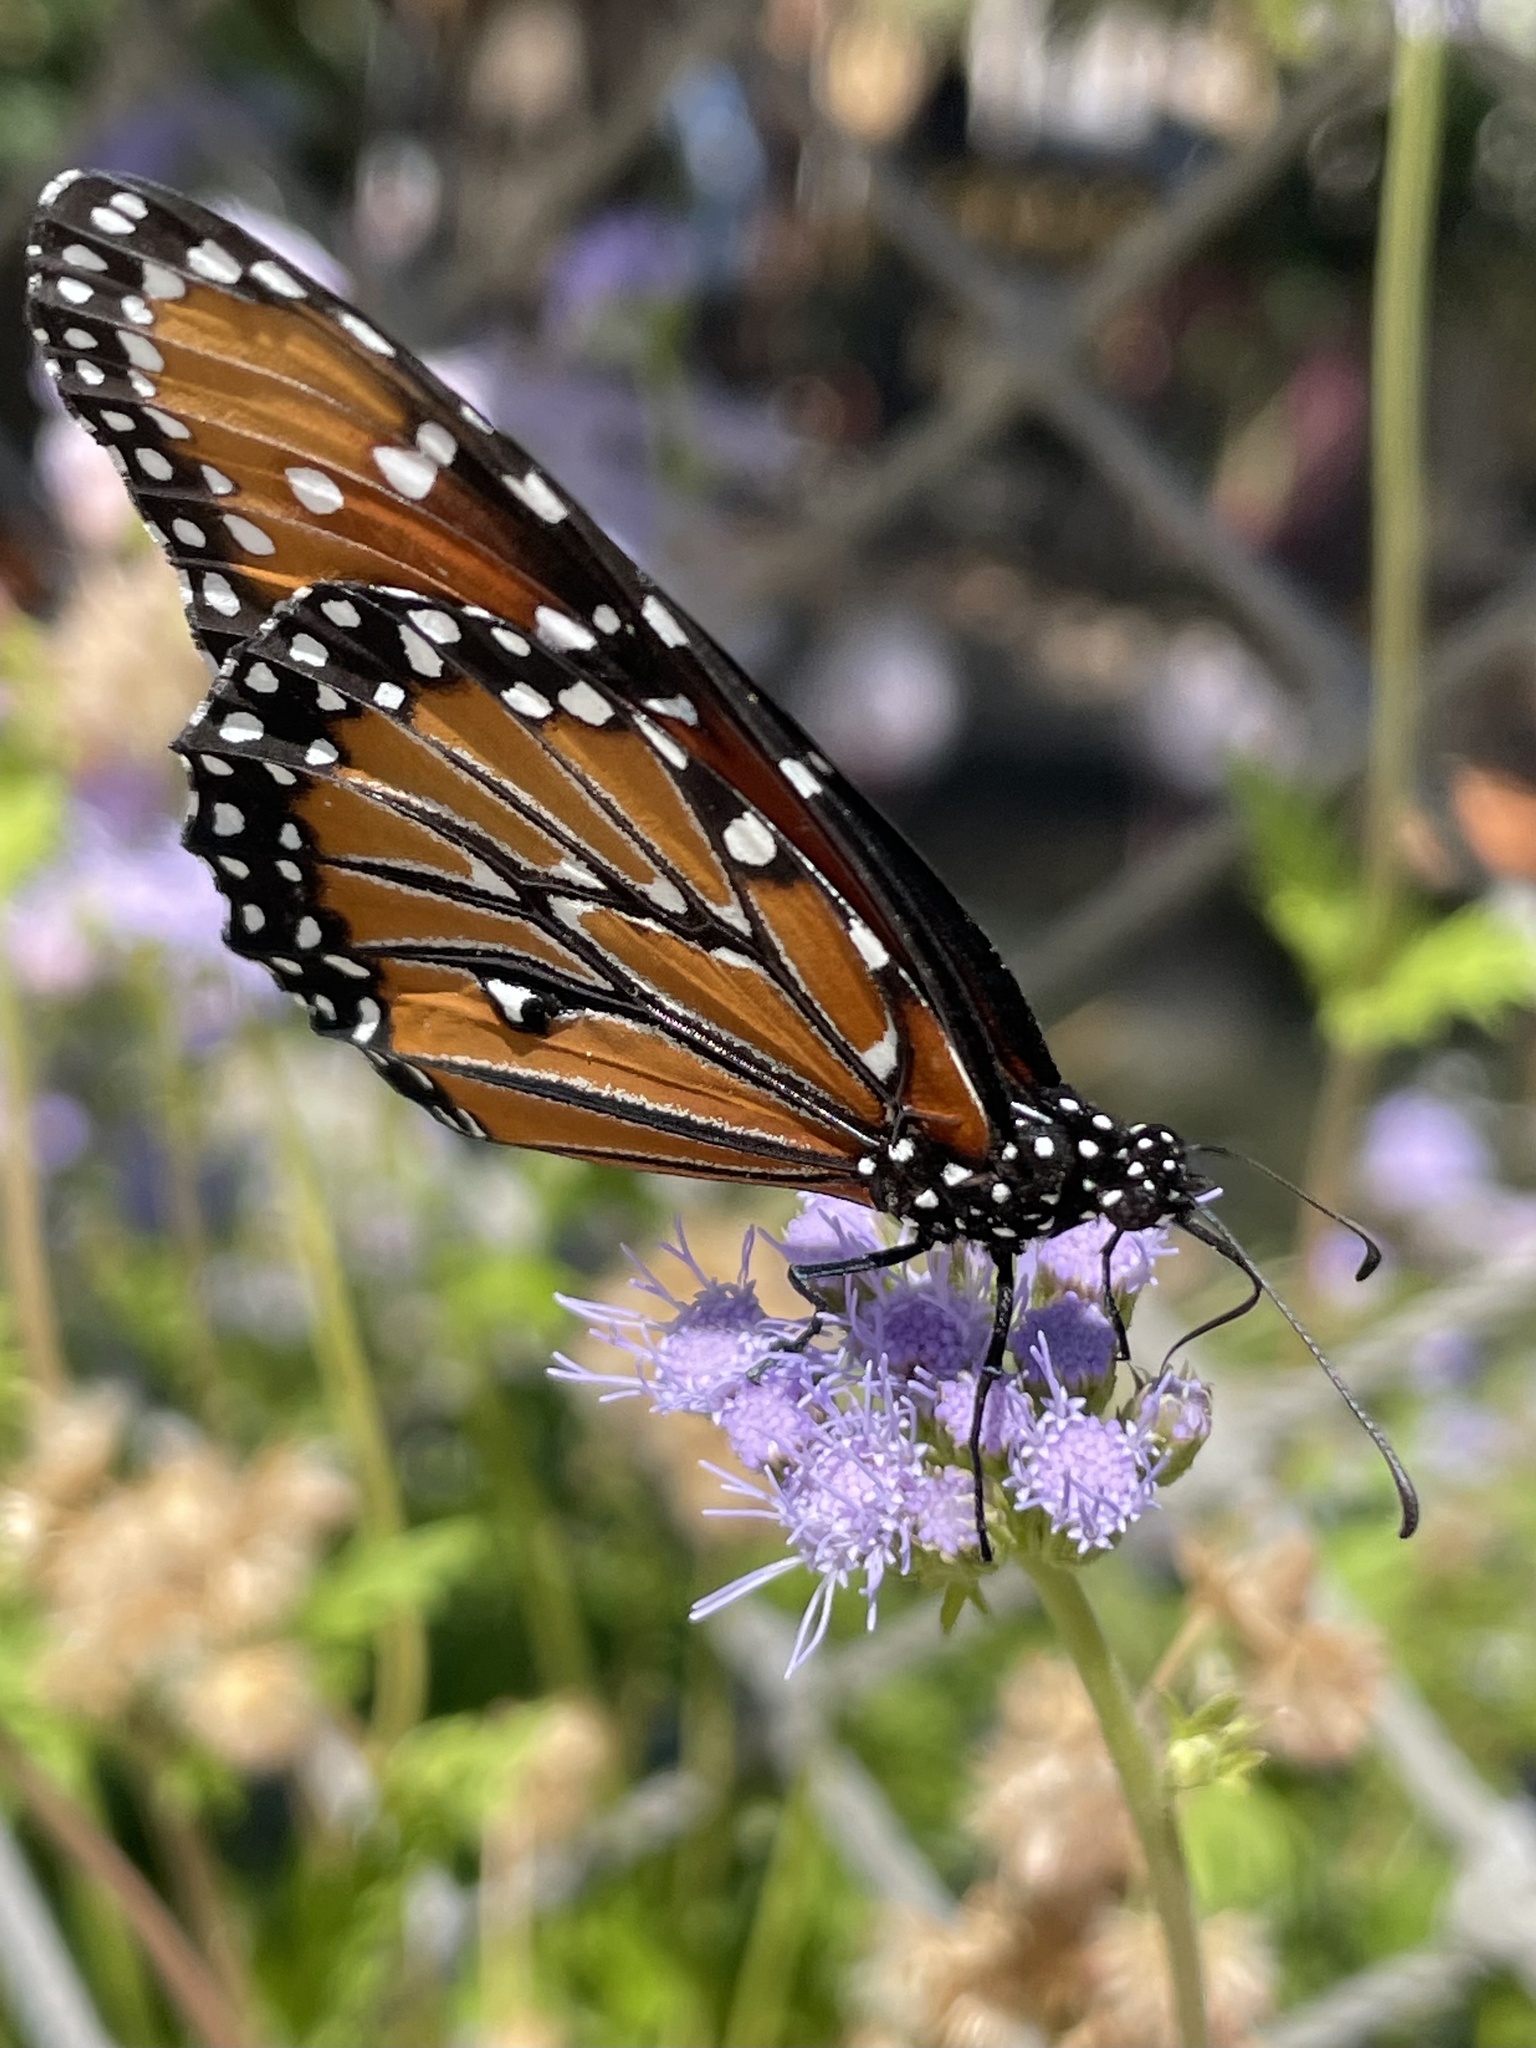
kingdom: Animalia
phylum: Arthropoda
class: Insecta
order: Lepidoptera
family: Nymphalidae
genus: Danaus
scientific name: Danaus gilippus
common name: Queen
